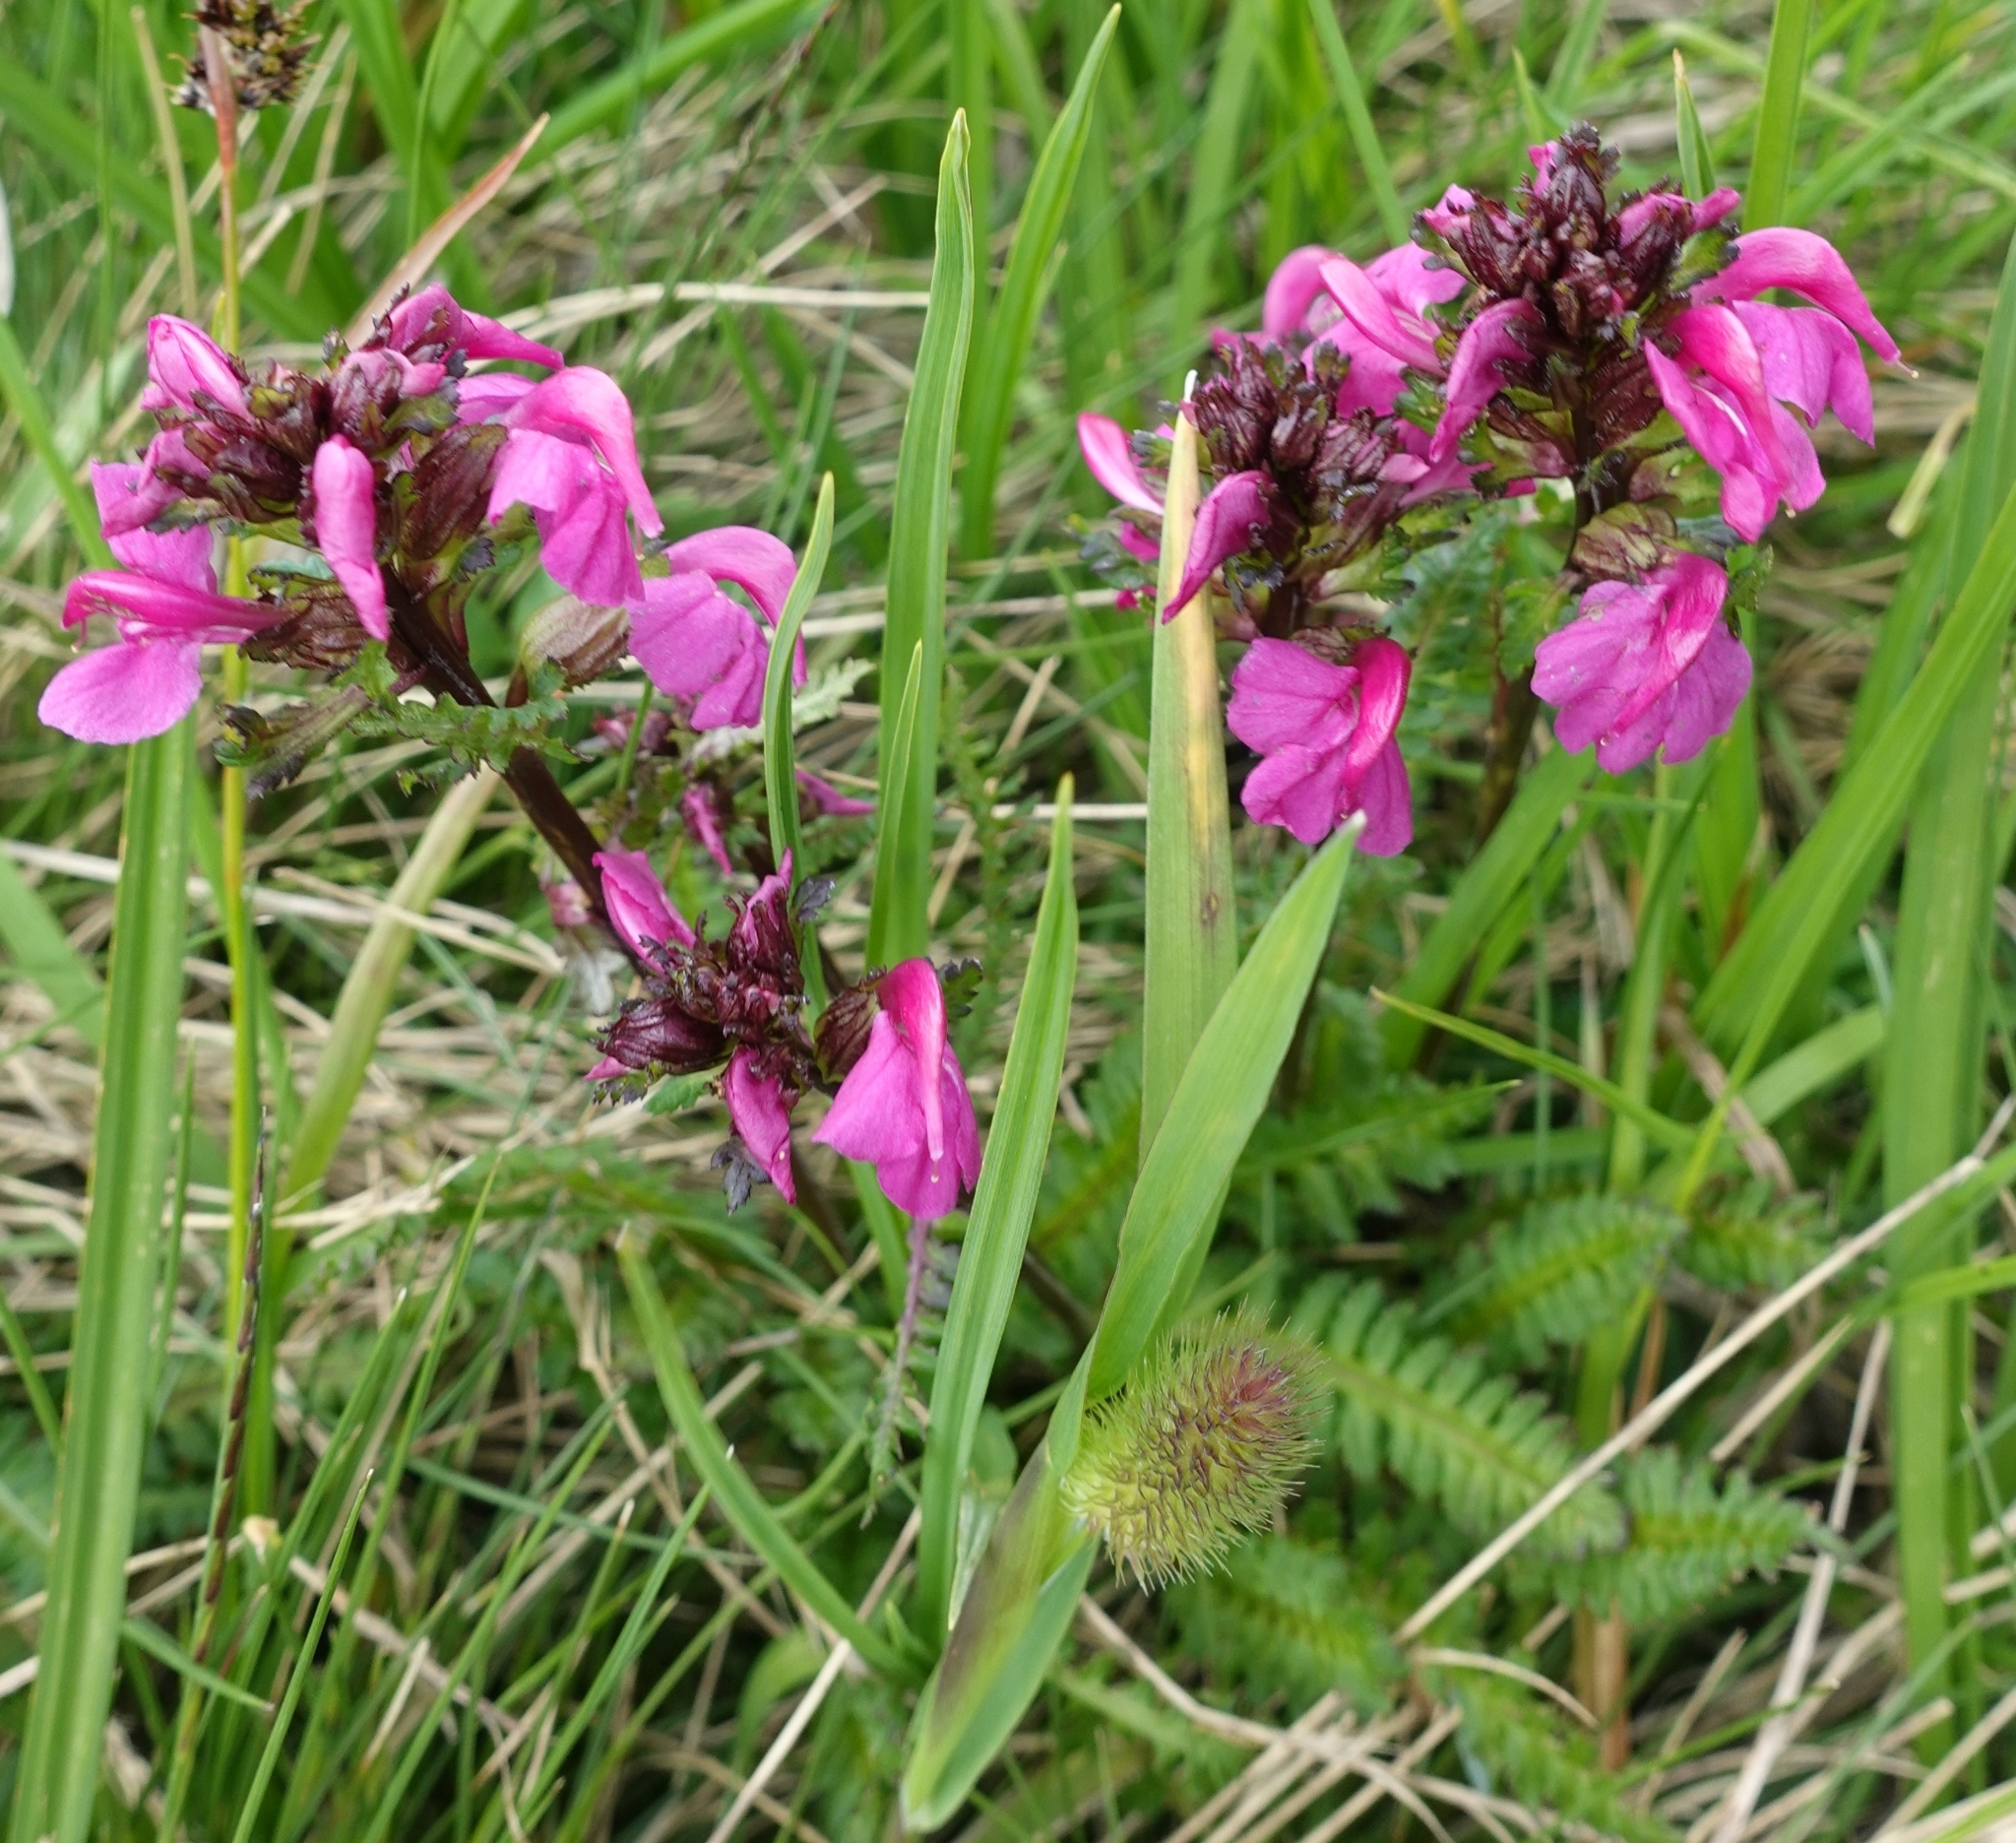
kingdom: Plantae
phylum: Tracheophyta
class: Magnoliopsida
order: Lamiales
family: Orobanchaceae
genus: Pedicularis
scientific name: Pedicularis nordmanniana
